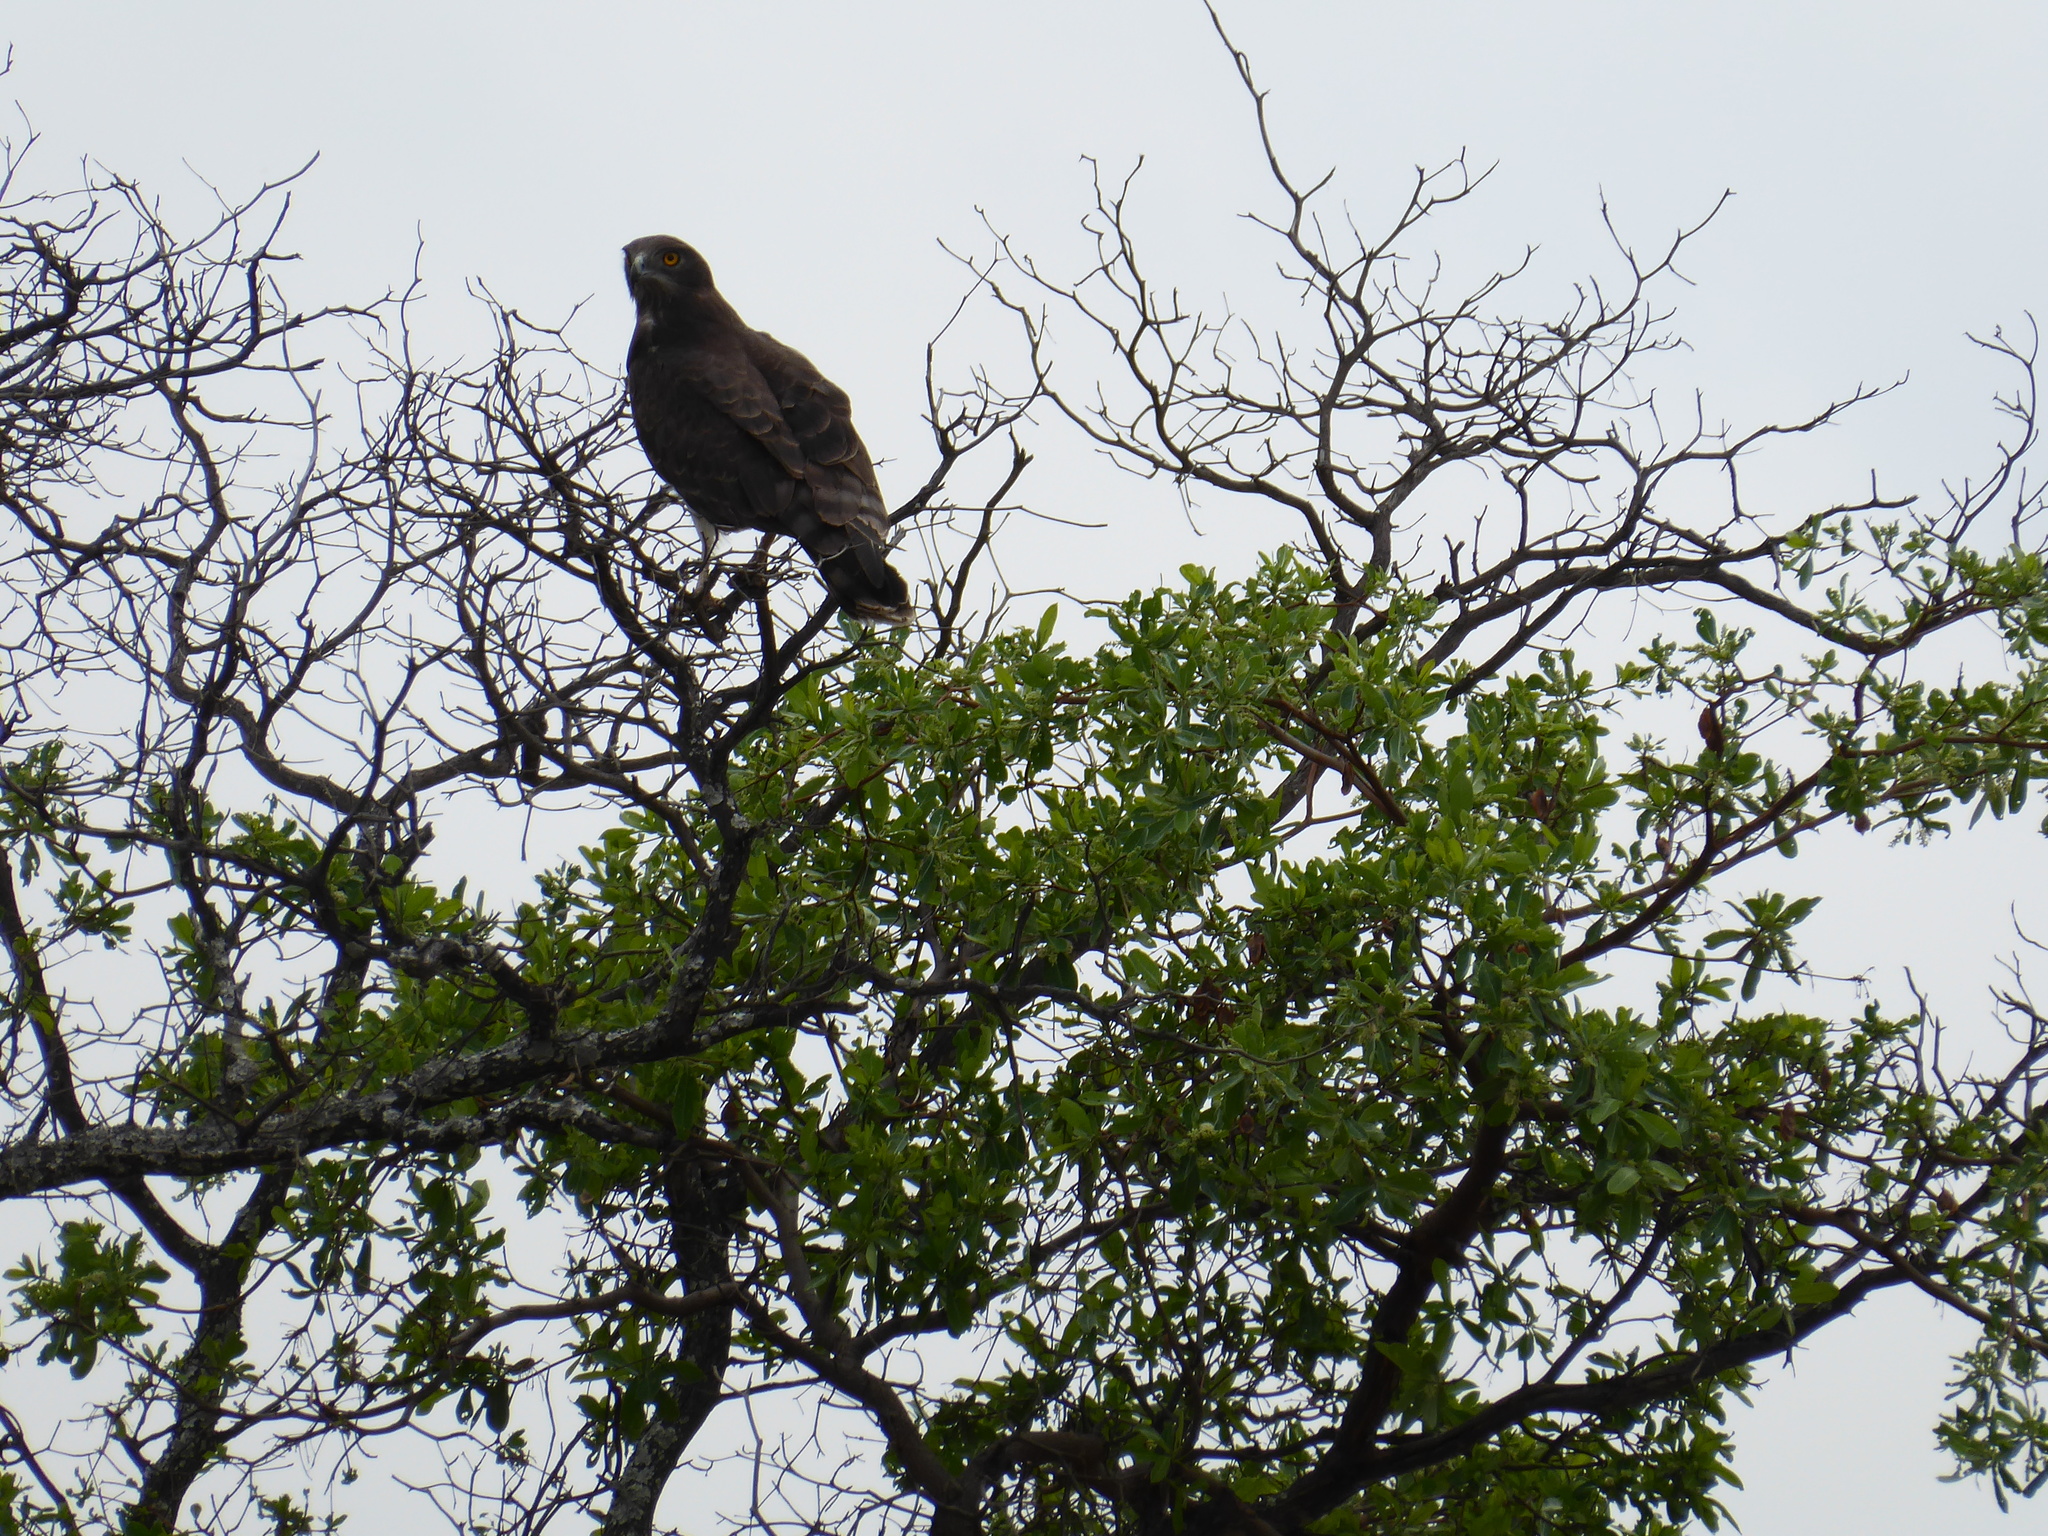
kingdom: Animalia
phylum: Chordata
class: Aves
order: Accipitriformes
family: Accipitridae
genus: Circaetus
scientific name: Circaetus pectoralis
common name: Black-chested snake eagle
